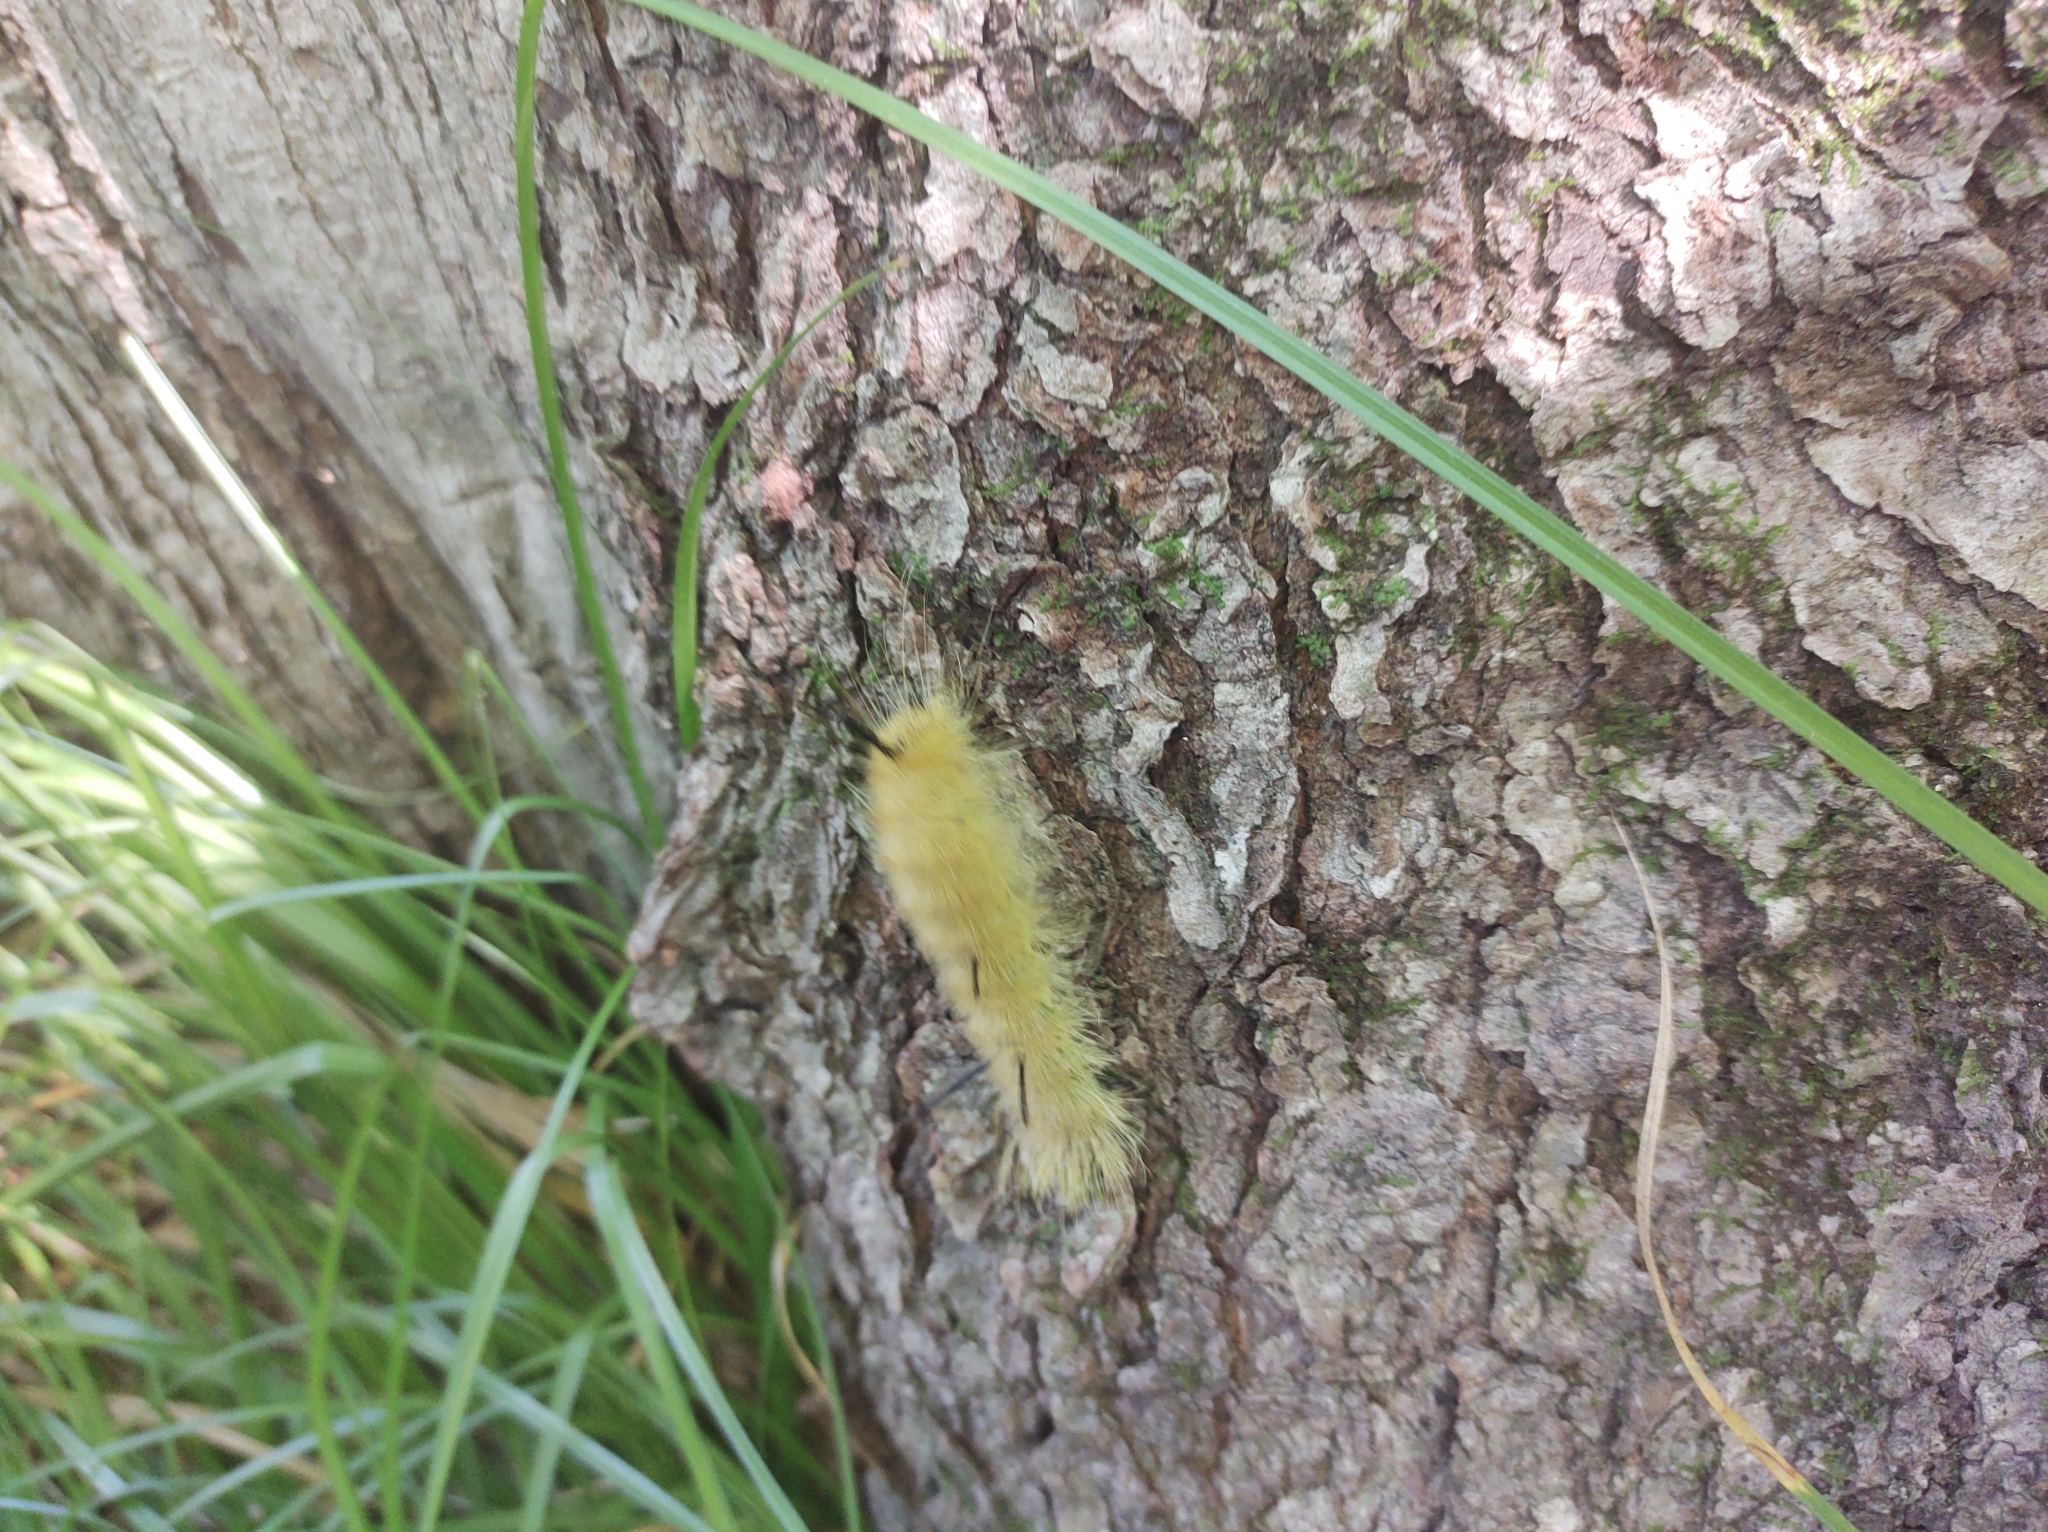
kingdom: Animalia
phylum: Arthropoda
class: Insecta
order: Lepidoptera
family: Noctuidae
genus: Acronicta
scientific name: Acronicta americana
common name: American dagger
